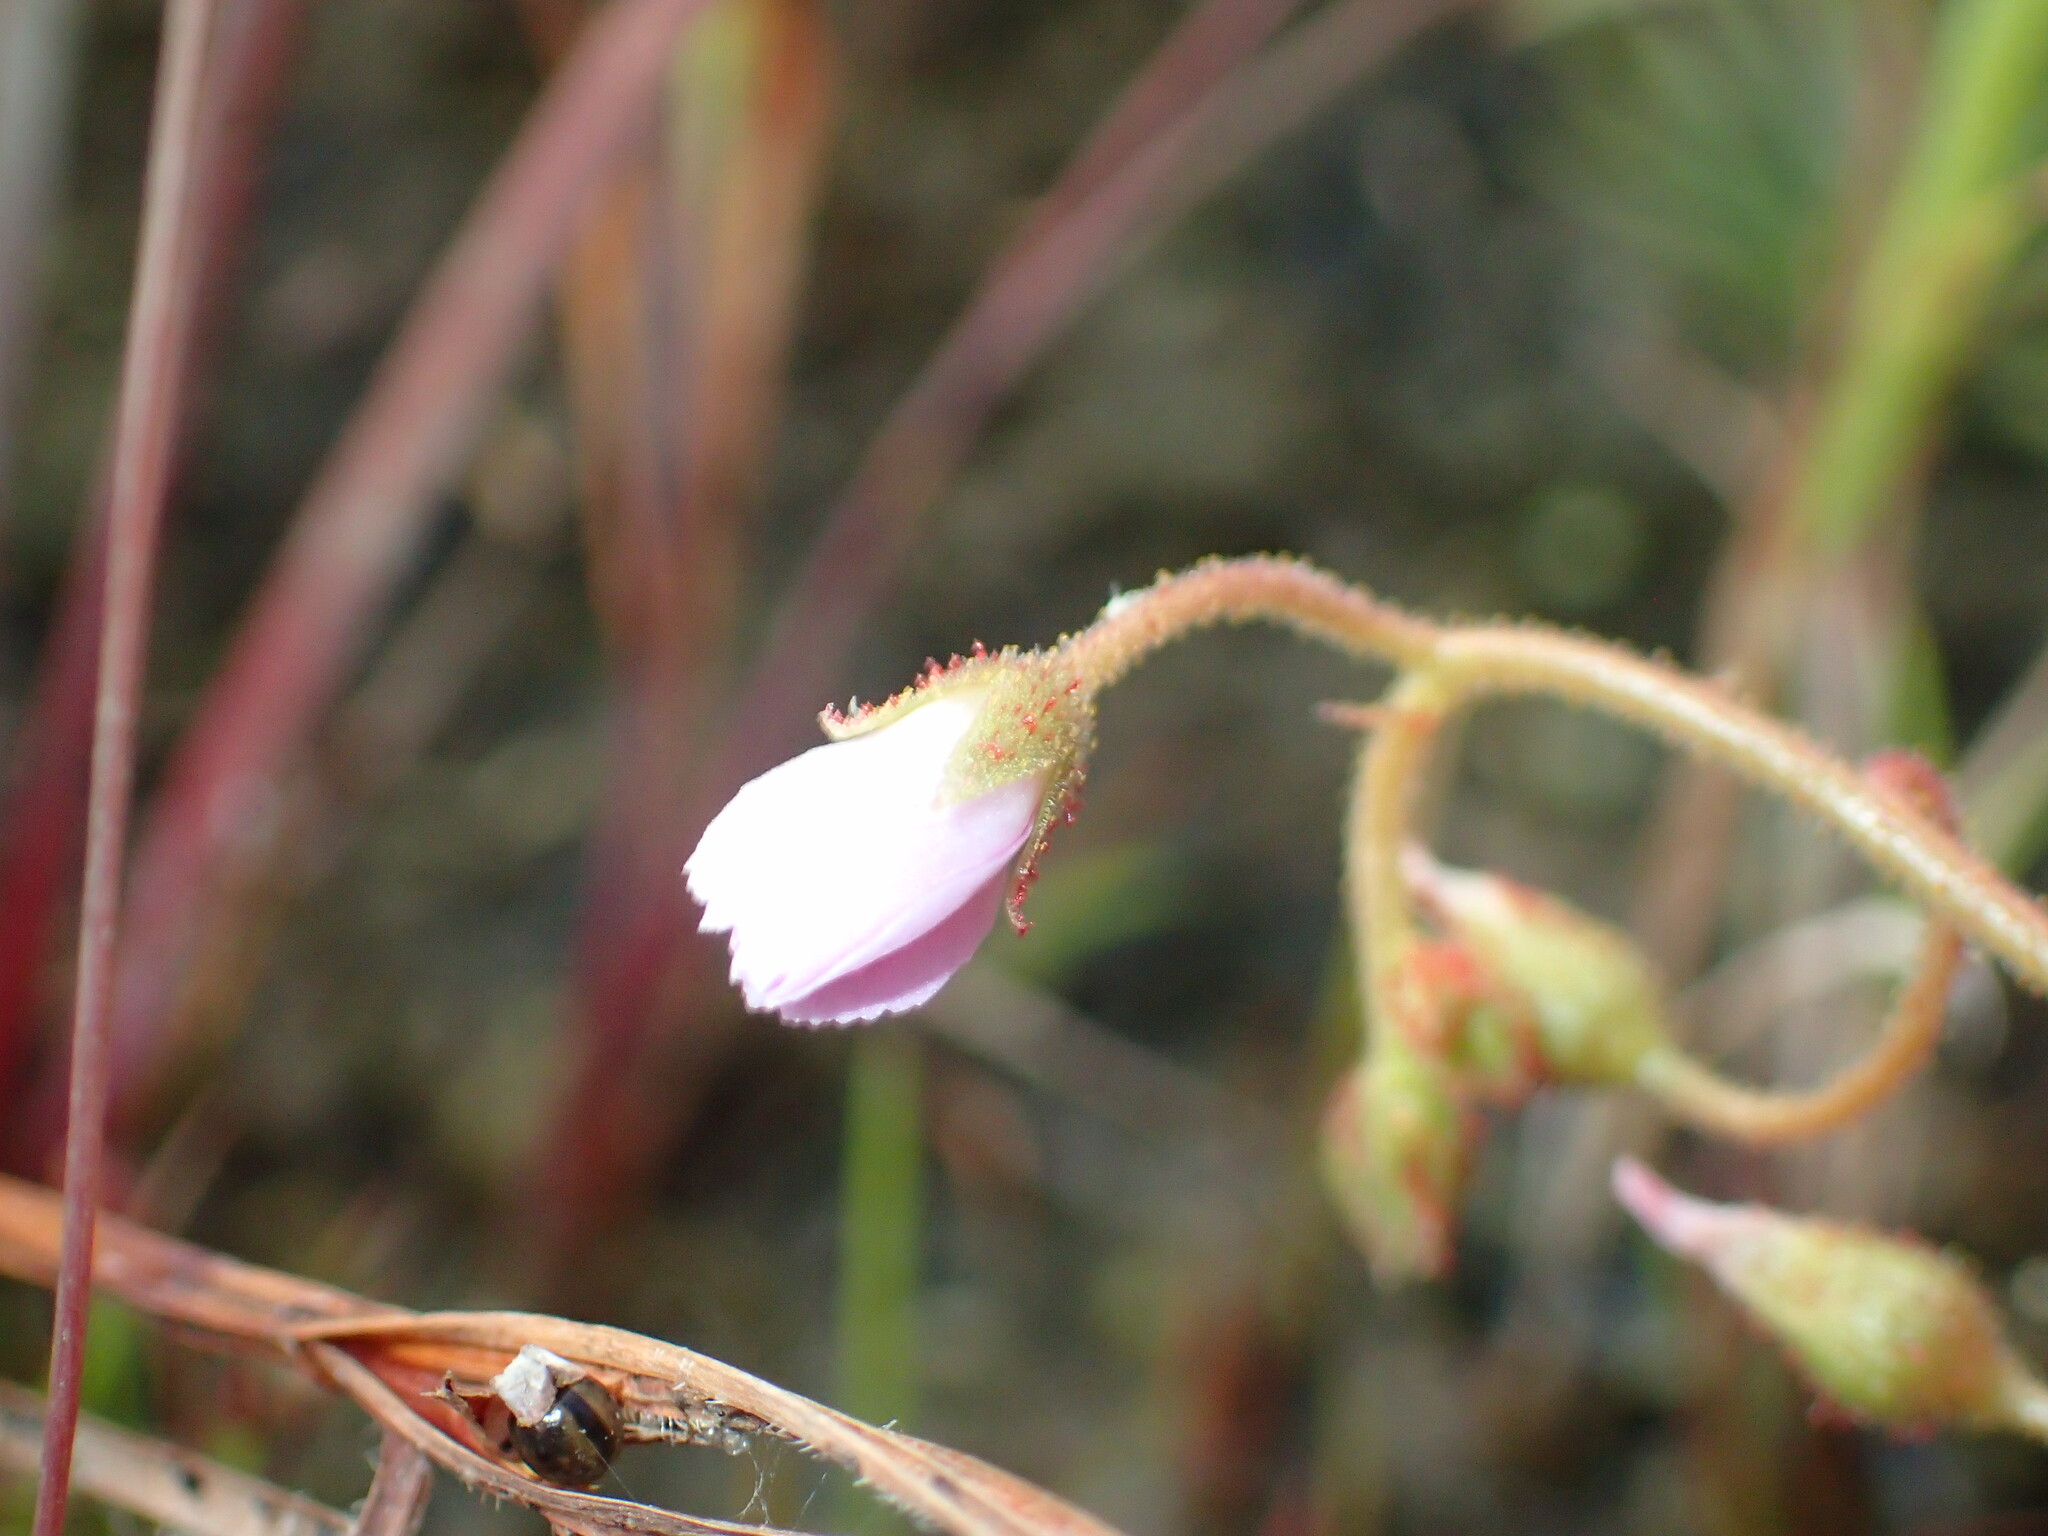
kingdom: Plantae
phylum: Tracheophyta
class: Magnoliopsida
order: Caryophyllales
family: Droseraceae
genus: Drosera
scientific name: Drosera indica
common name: Indian sundew
